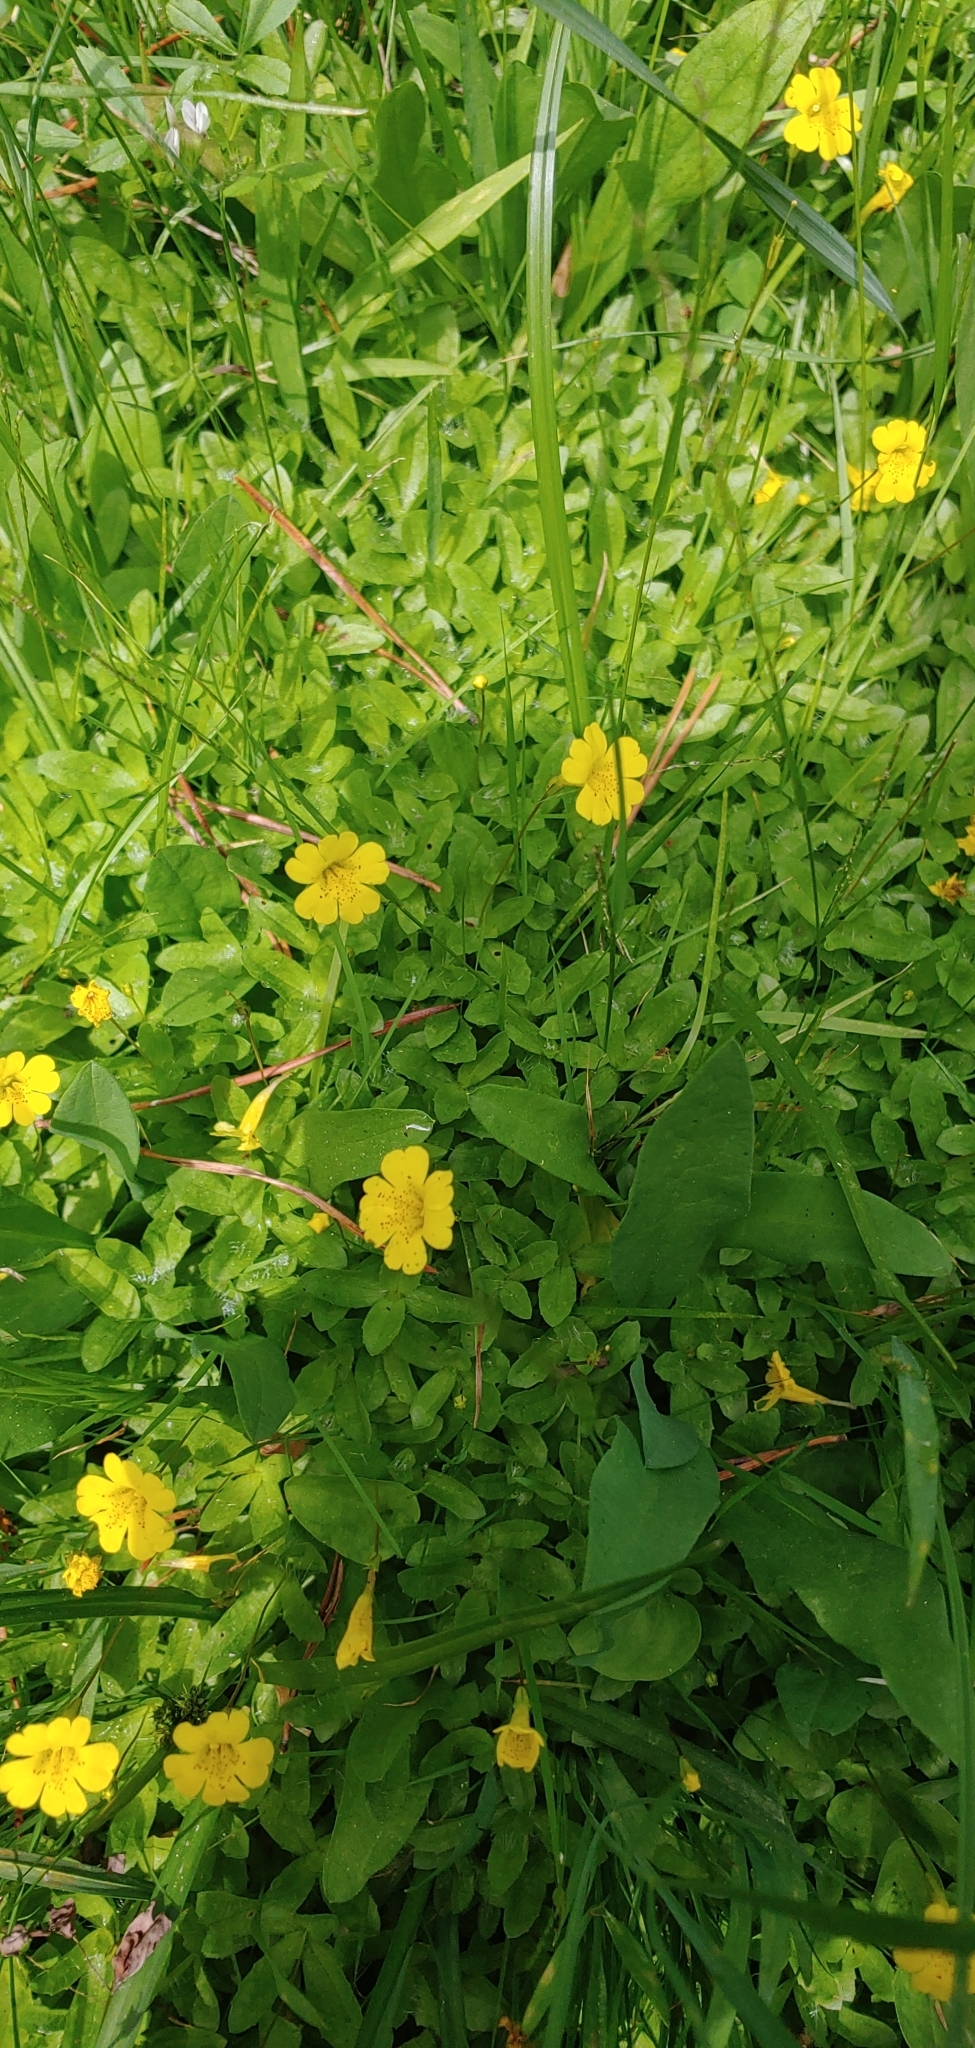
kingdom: Plantae
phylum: Tracheophyta
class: Magnoliopsida
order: Lamiales
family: Phrymaceae
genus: Erythranthe
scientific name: Erythranthe primuloides
